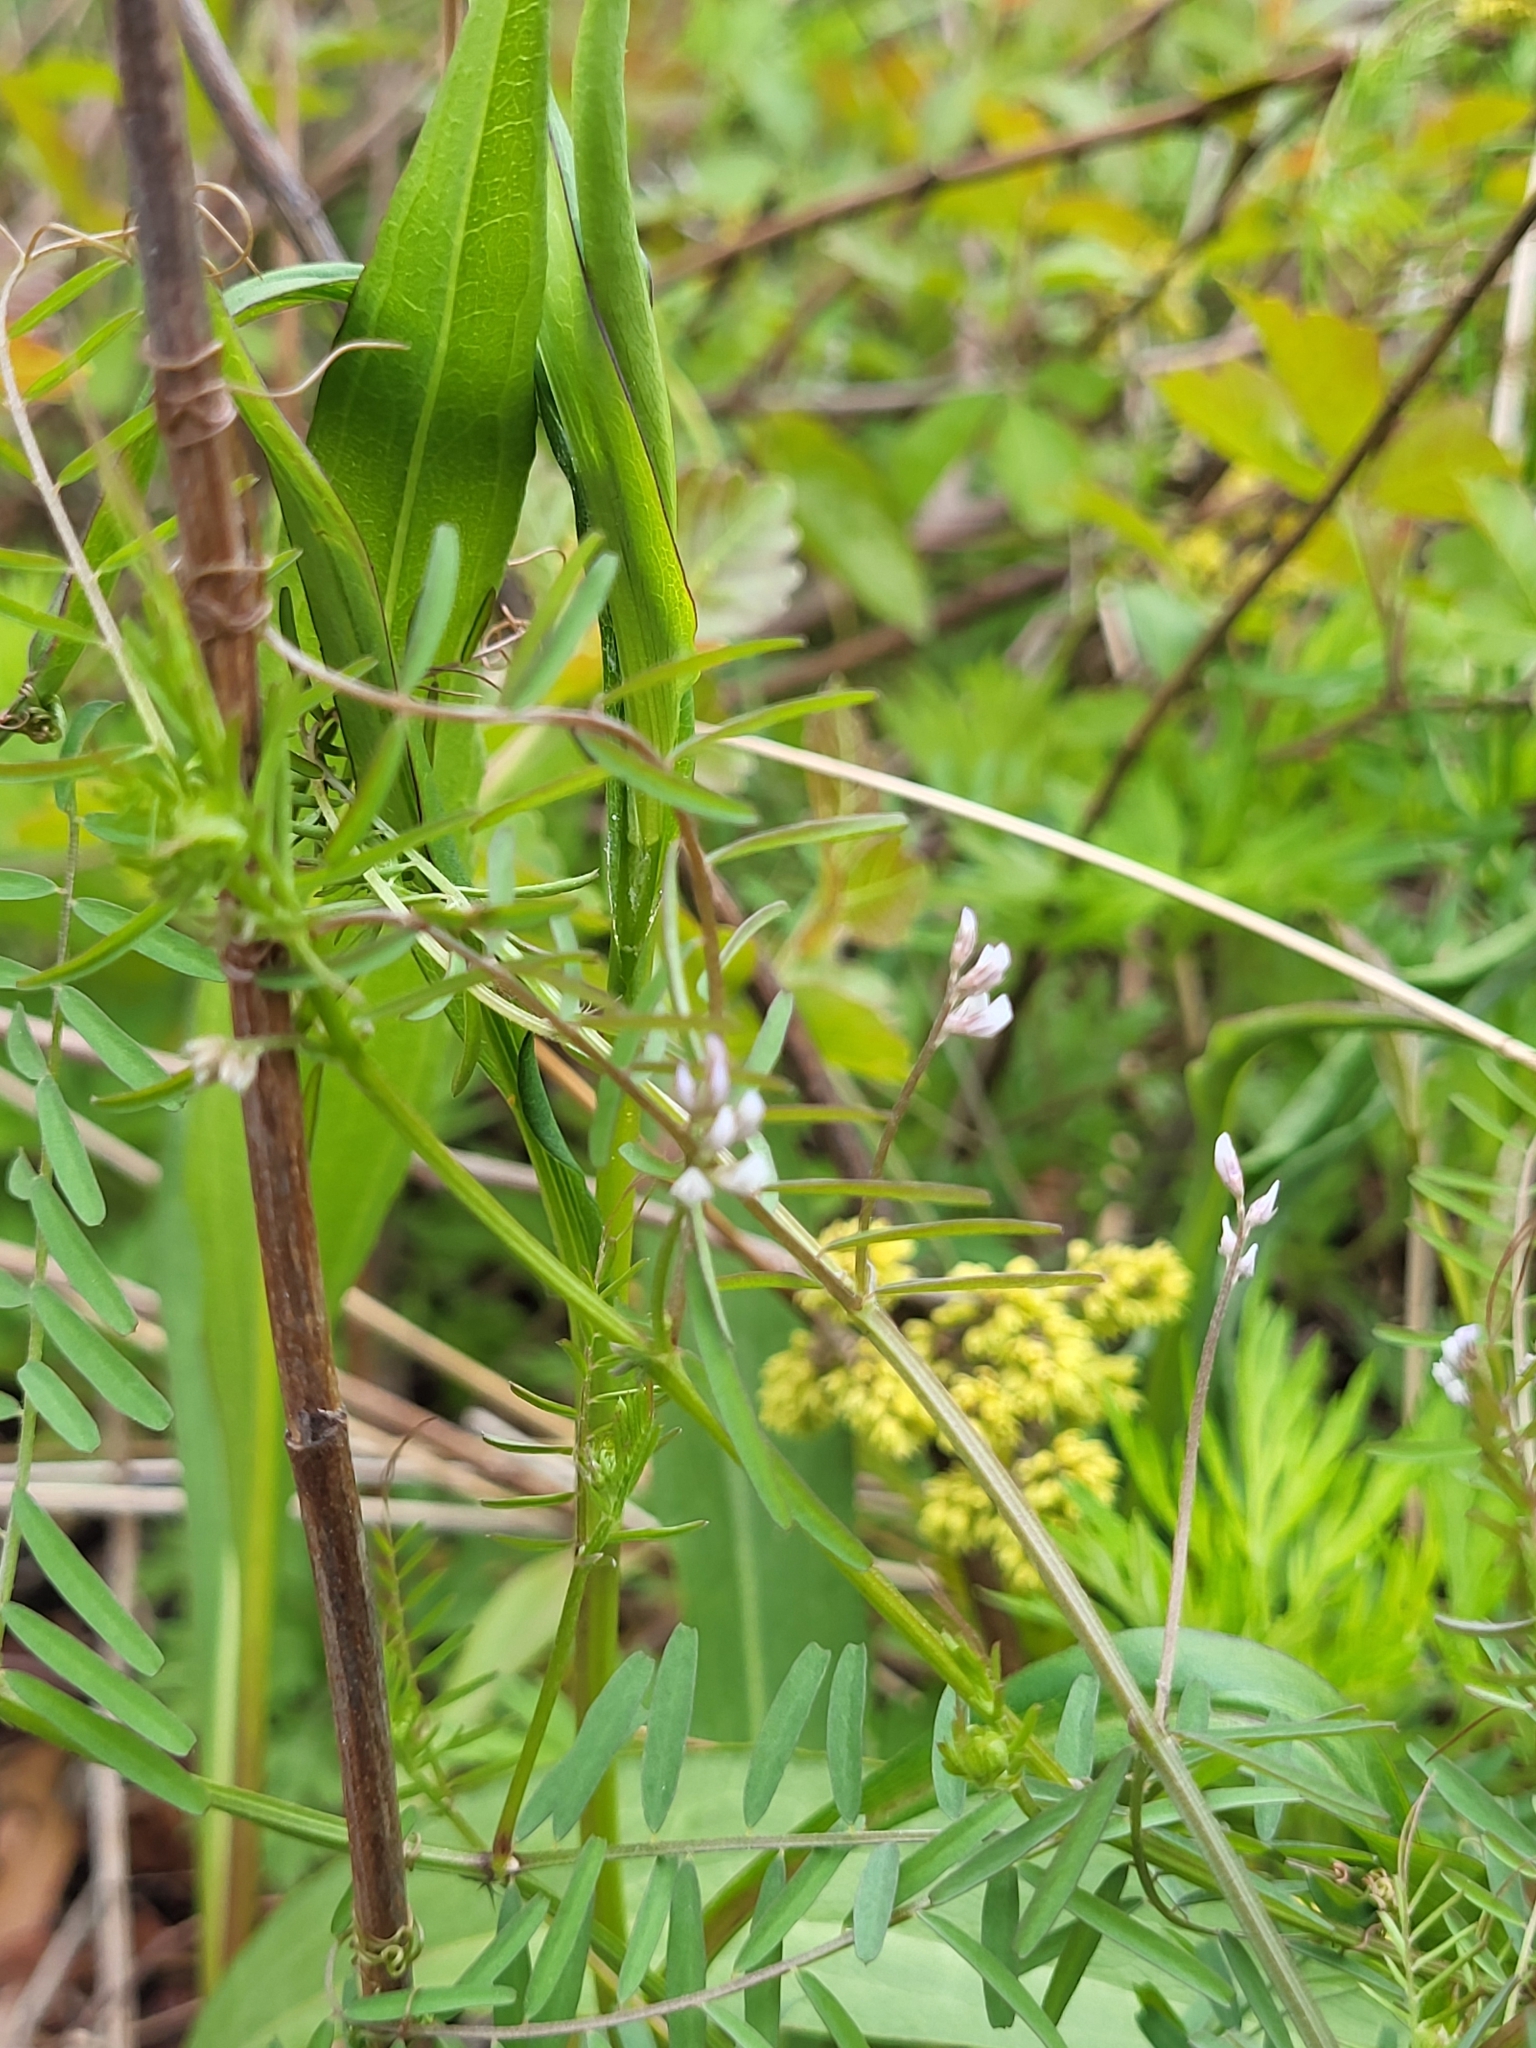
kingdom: Plantae
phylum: Tracheophyta
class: Magnoliopsida
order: Fabales
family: Fabaceae
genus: Vicia
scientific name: Vicia hirsuta
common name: Tiny vetch
